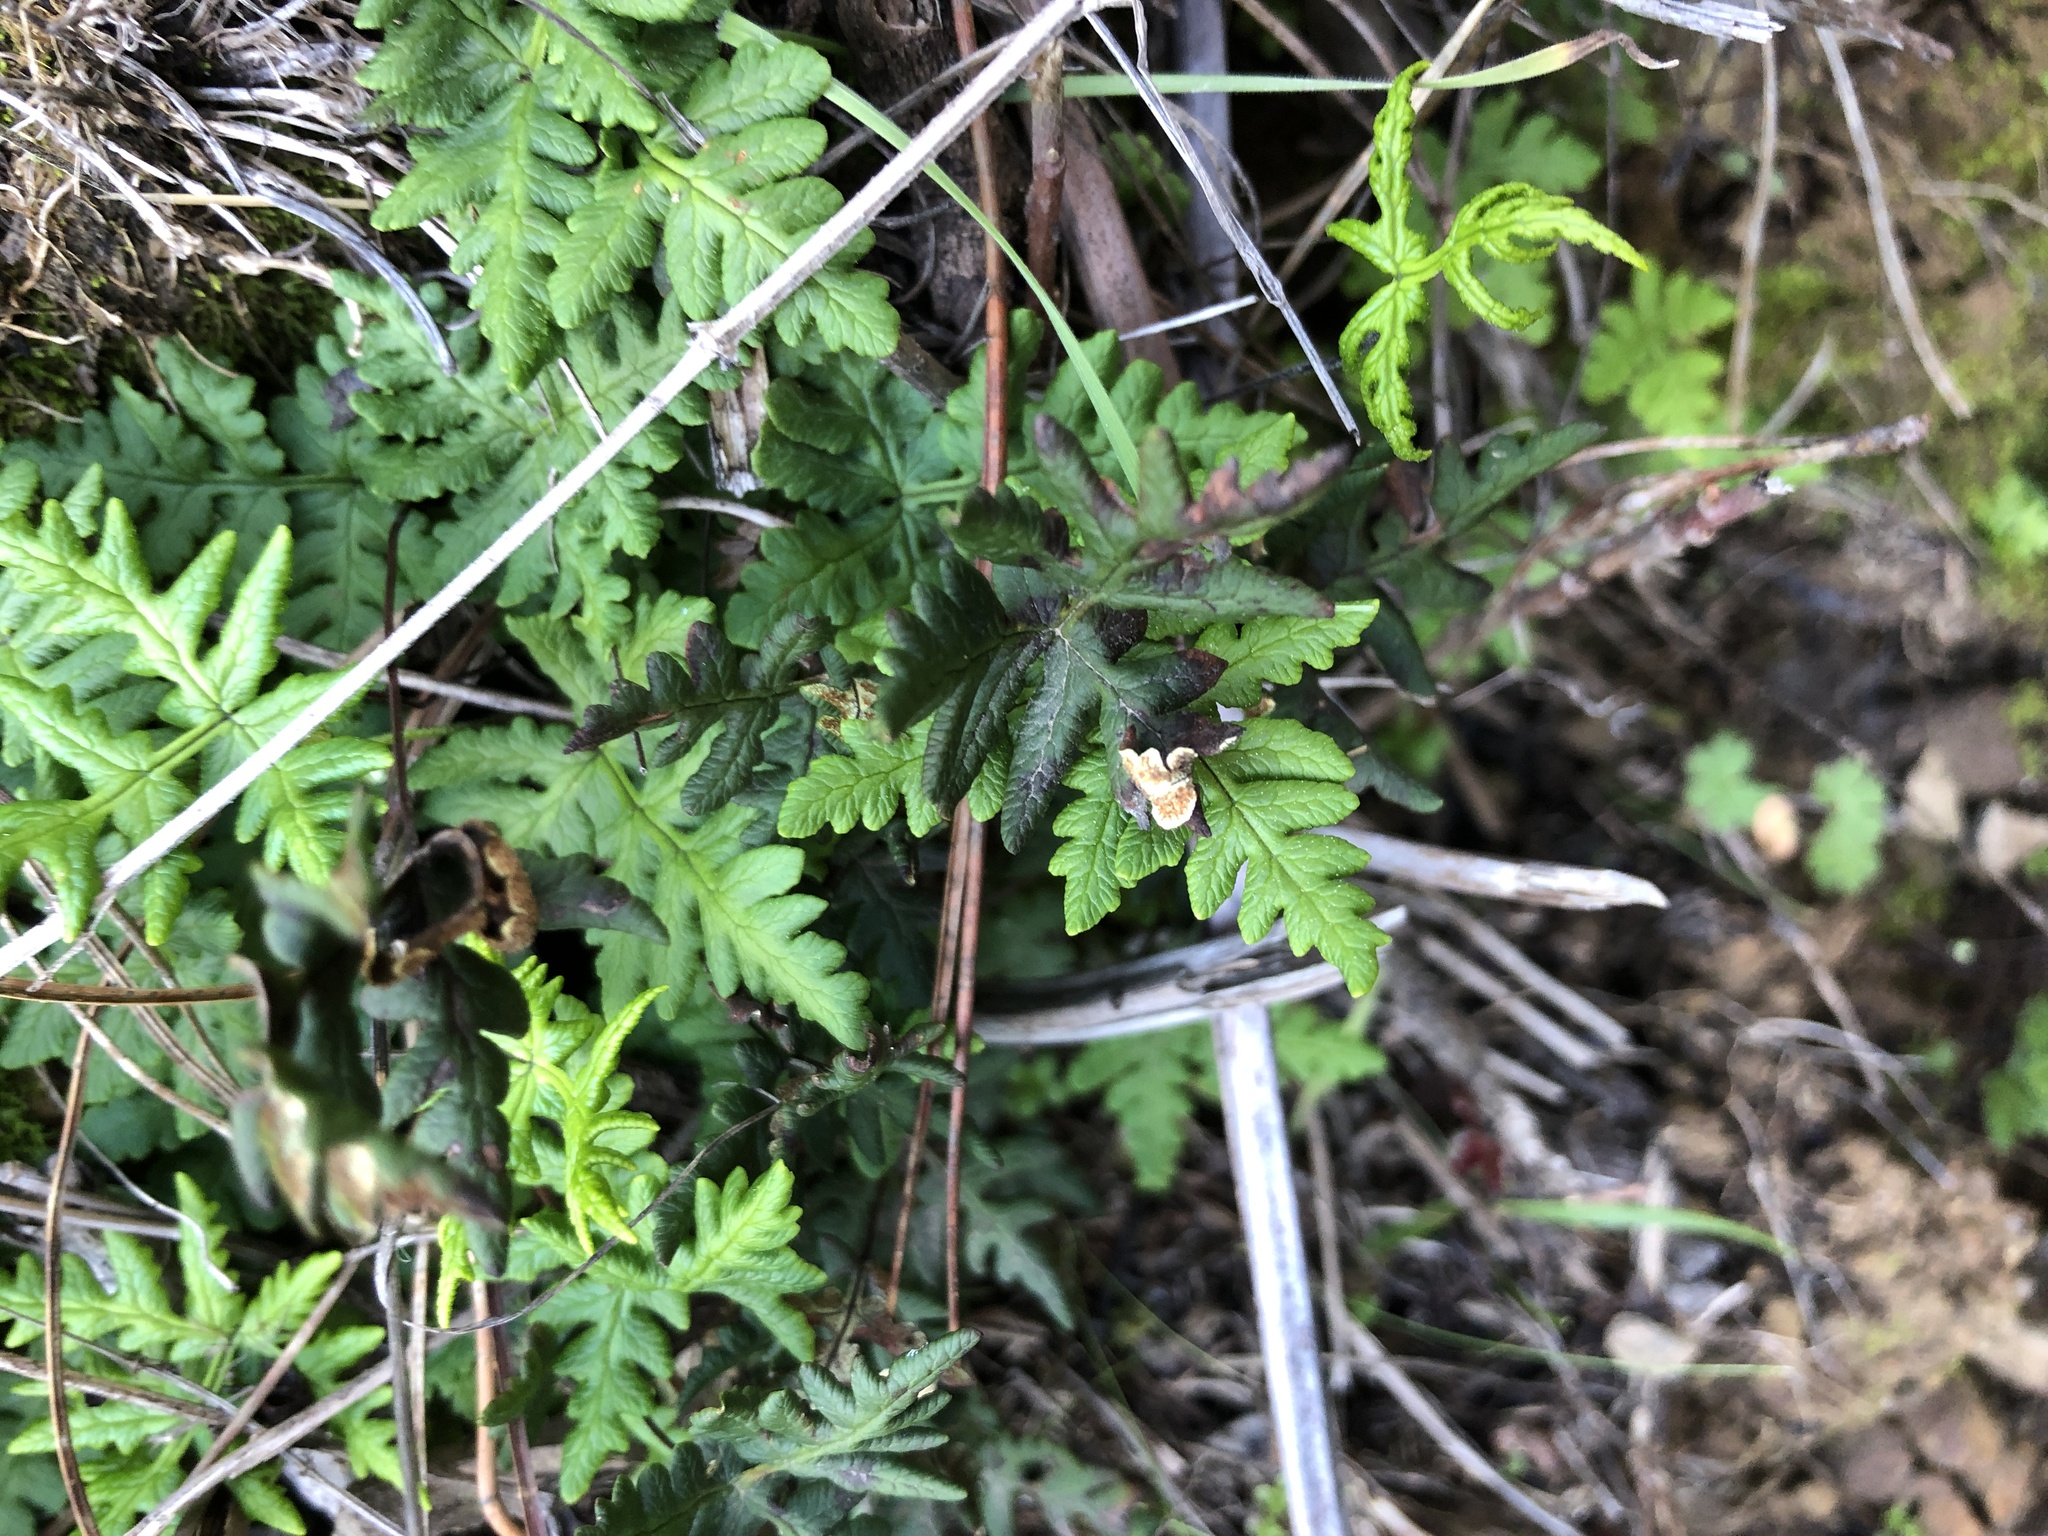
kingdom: Plantae
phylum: Tracheophyta
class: Polypodiopsida
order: Polypodiales
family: Pteridaceae
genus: Pentagramma
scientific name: Pentagramma triangularis
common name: Gold fern
